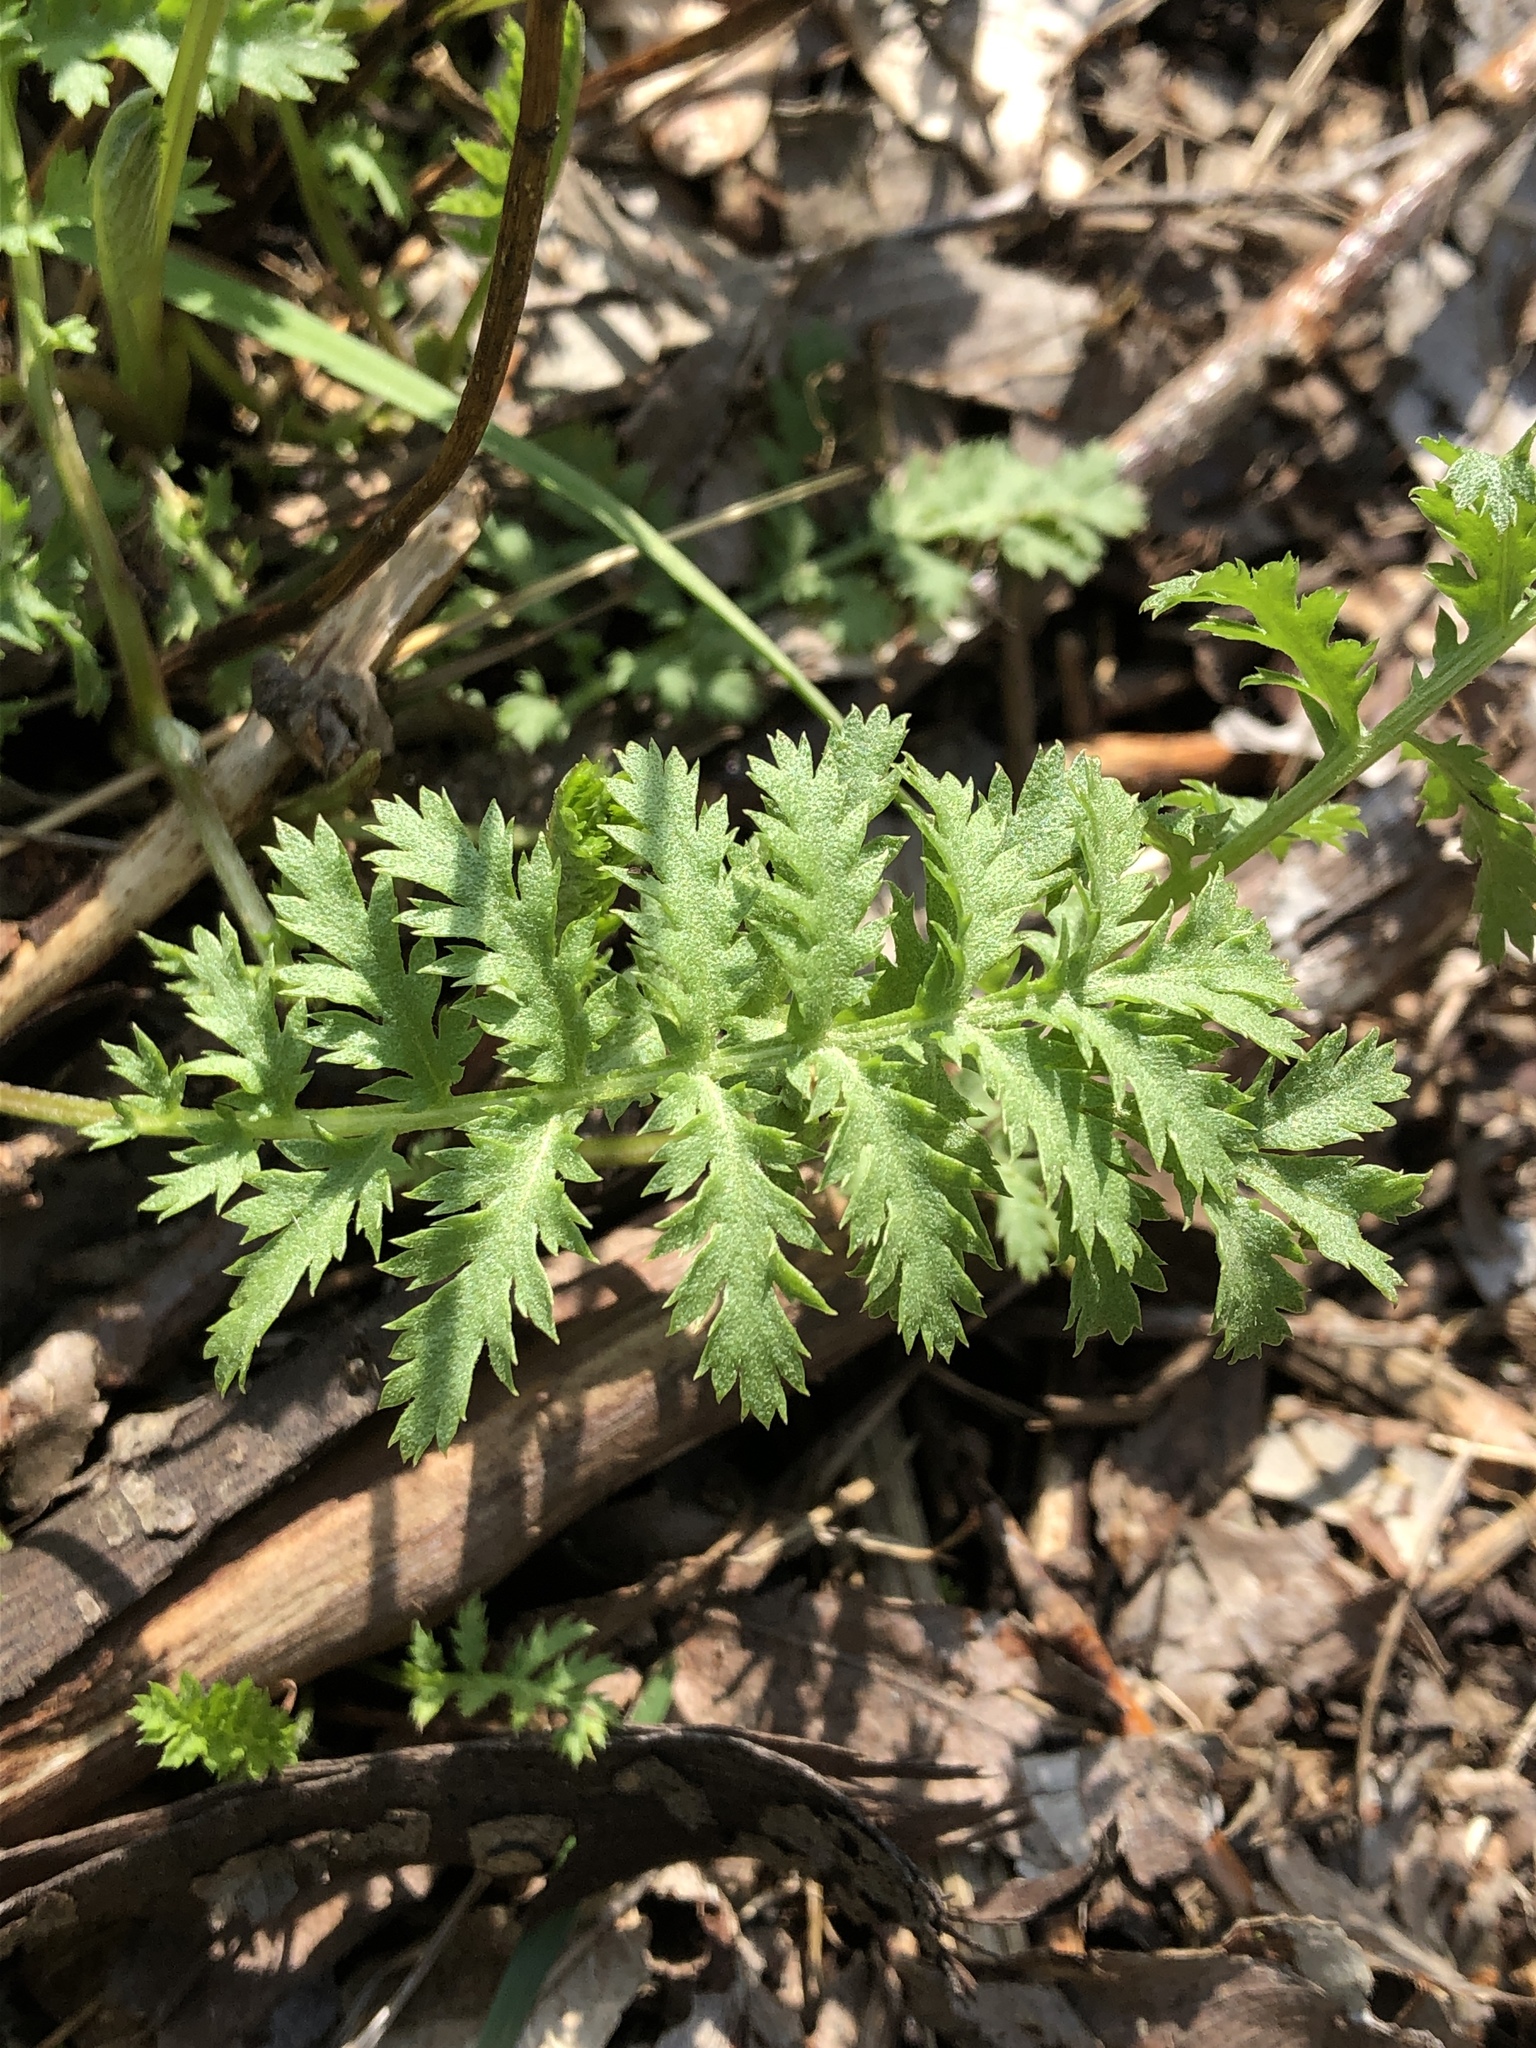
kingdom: Plantae
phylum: Tracheophyta
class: Magnoliopsida
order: Asterales
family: Asteraceae
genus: Tanacetum
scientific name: Tanacetum vulgare
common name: Common tansy
